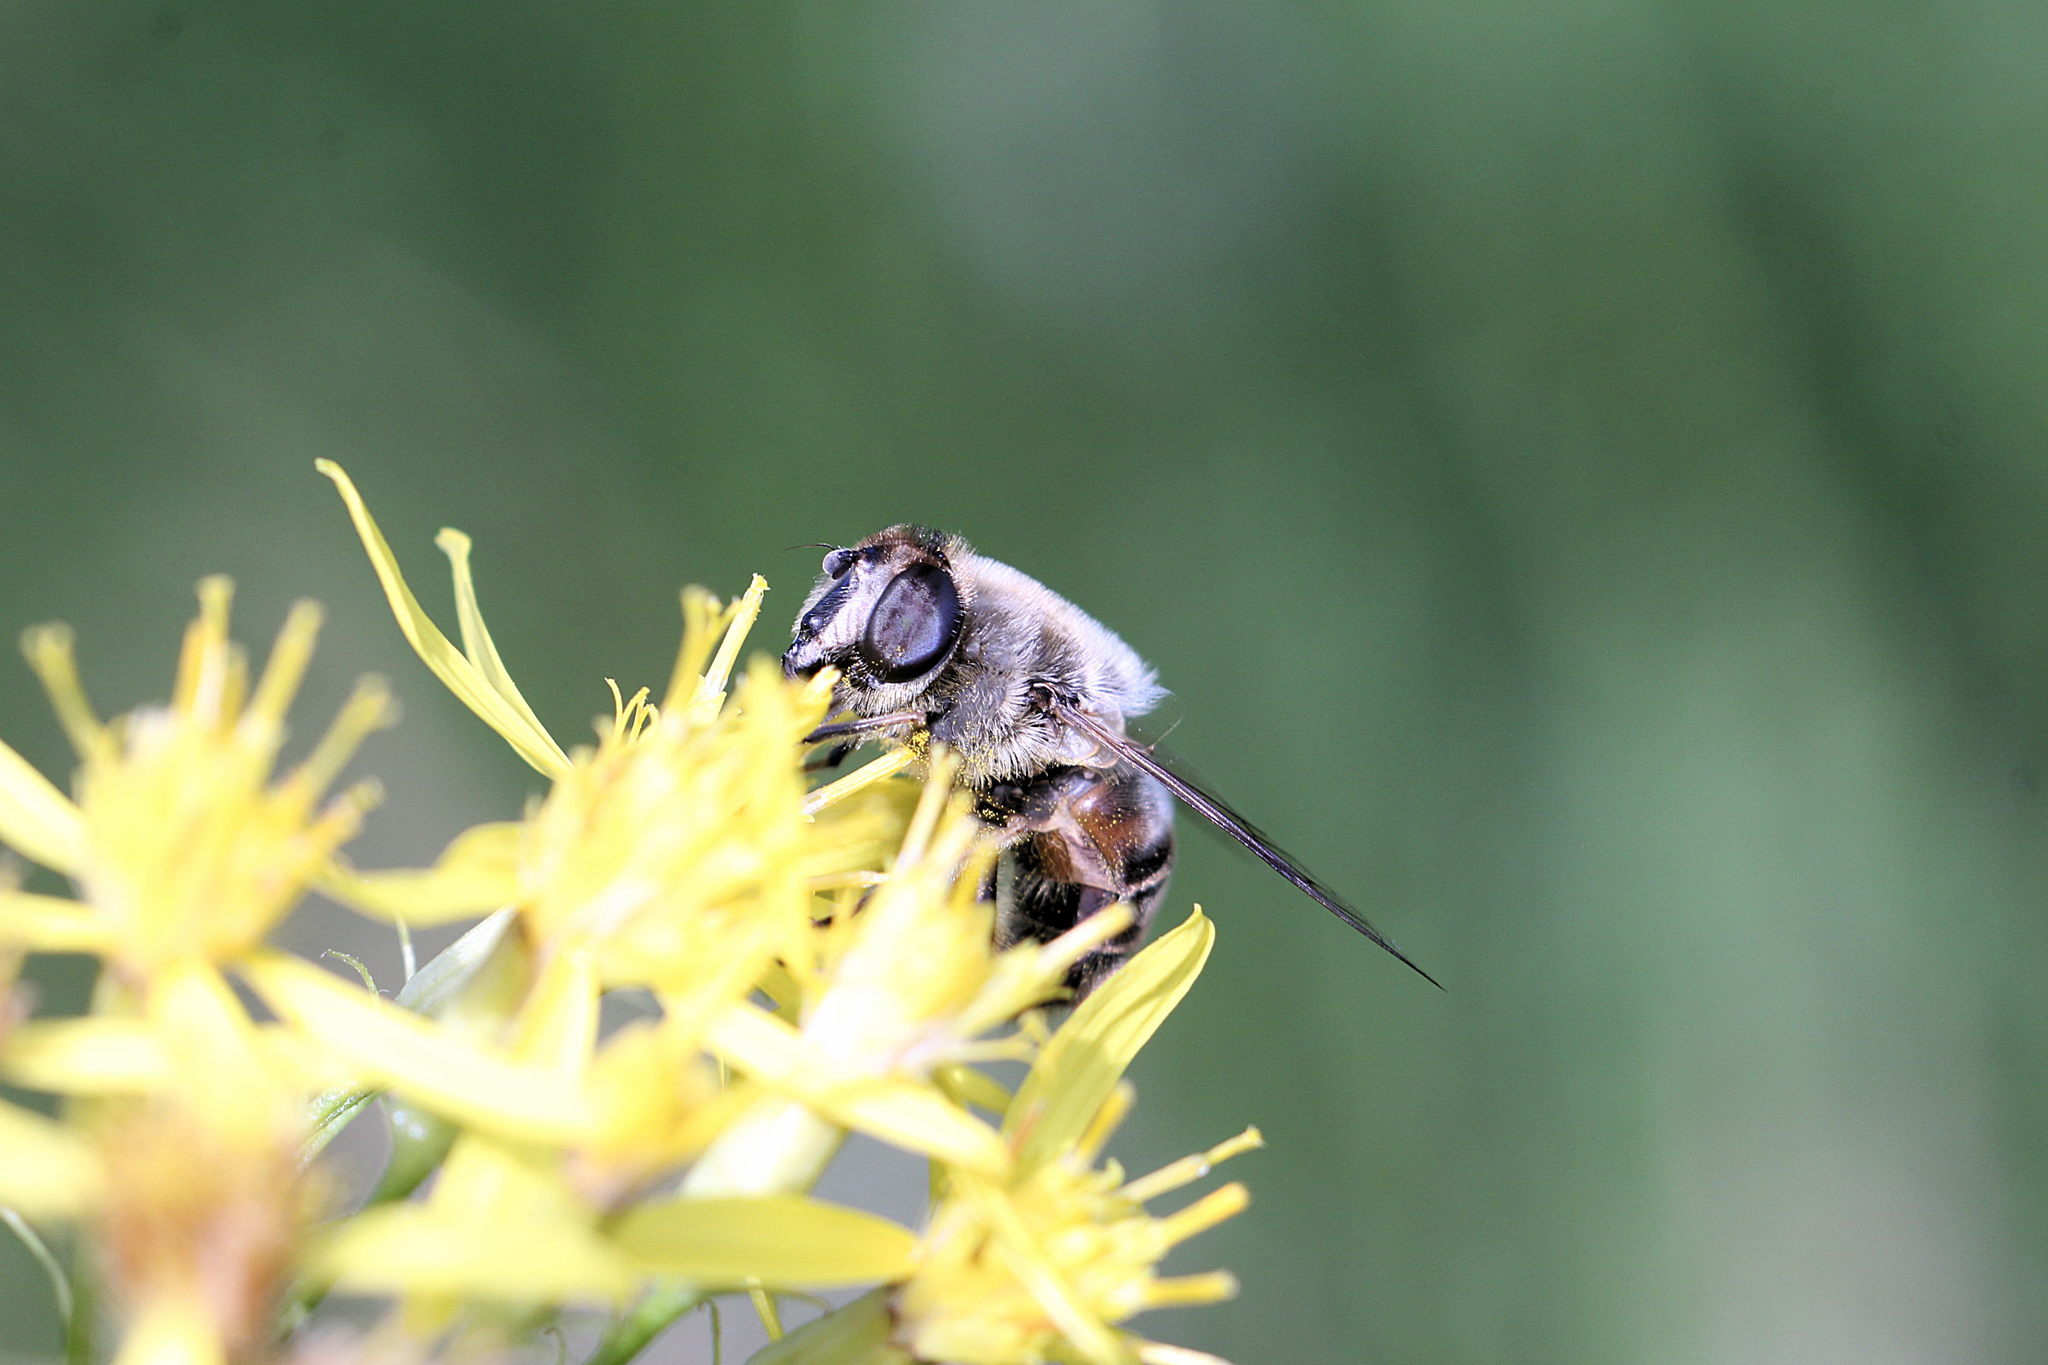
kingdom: Animalia
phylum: Arthropoda
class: Insecta
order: Diptera
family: Syrphidae
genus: Eristalis
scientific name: Eristalis tenax
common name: Drone fly
